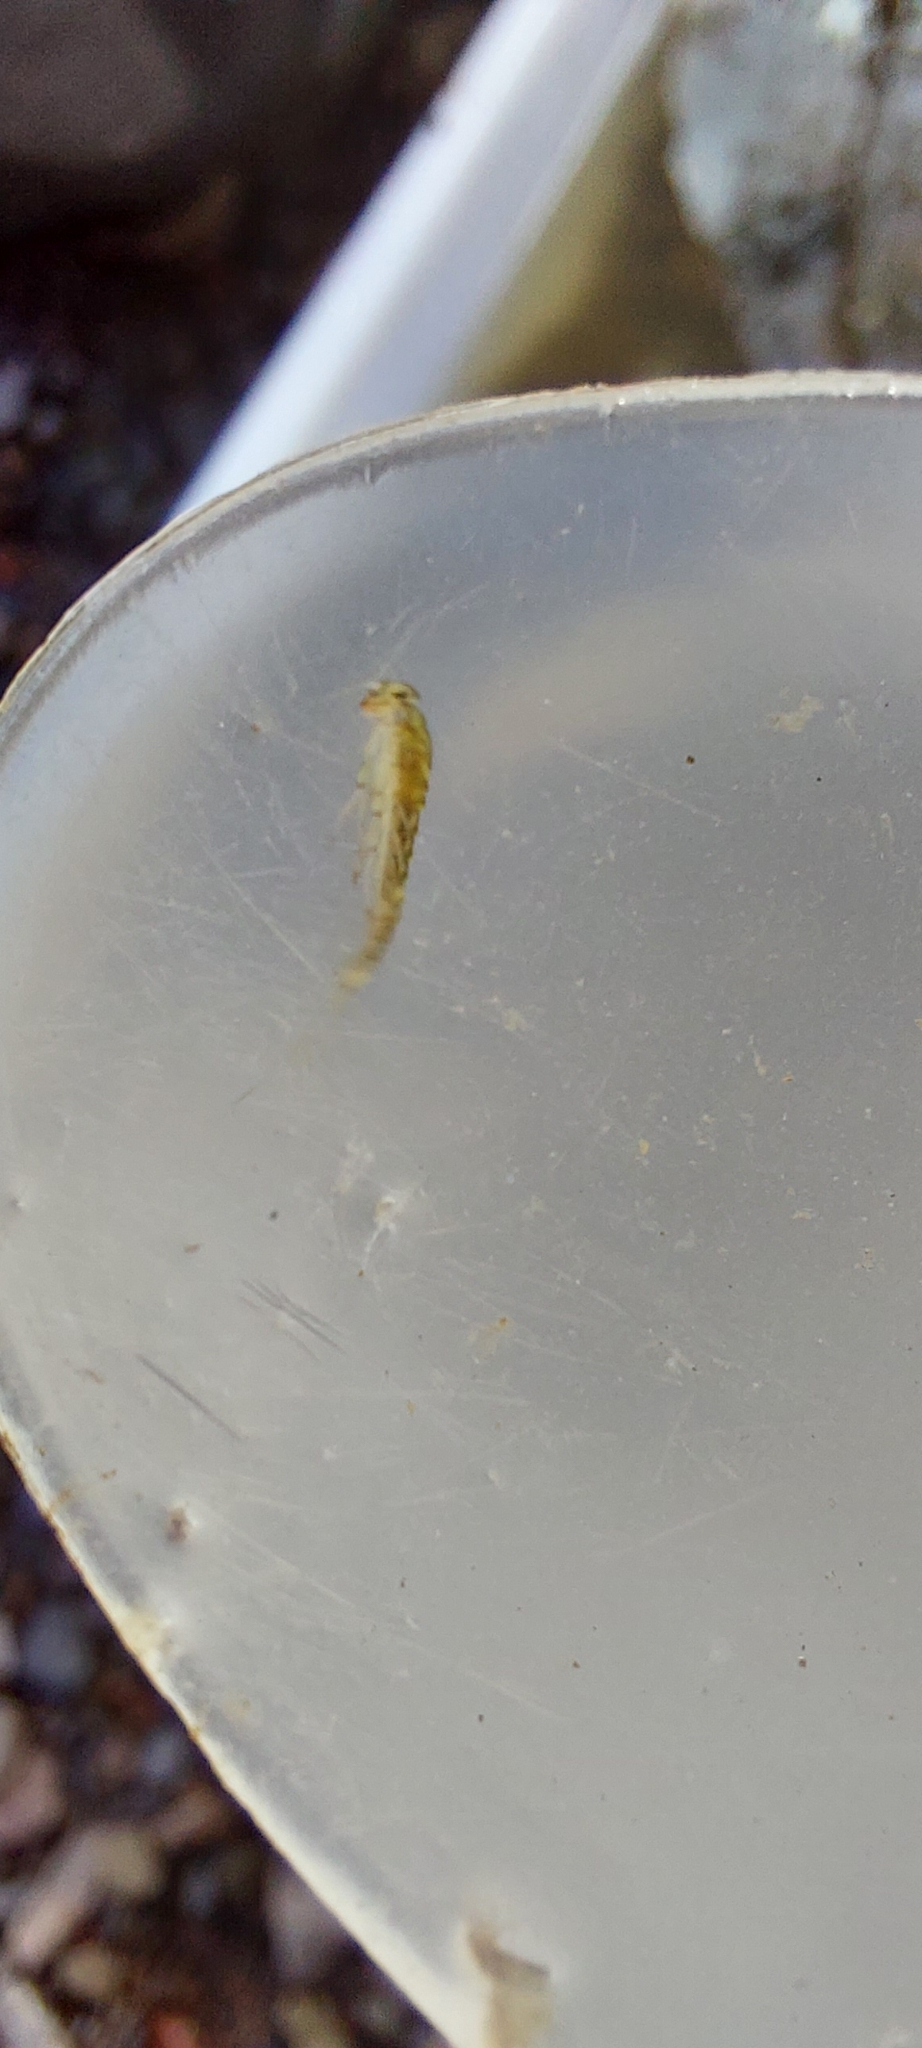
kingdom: Animalia
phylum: Arthropoda
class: Insecta
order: Ephemeroptera
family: Baetidae
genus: Baetis
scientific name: Baetis rhodani
